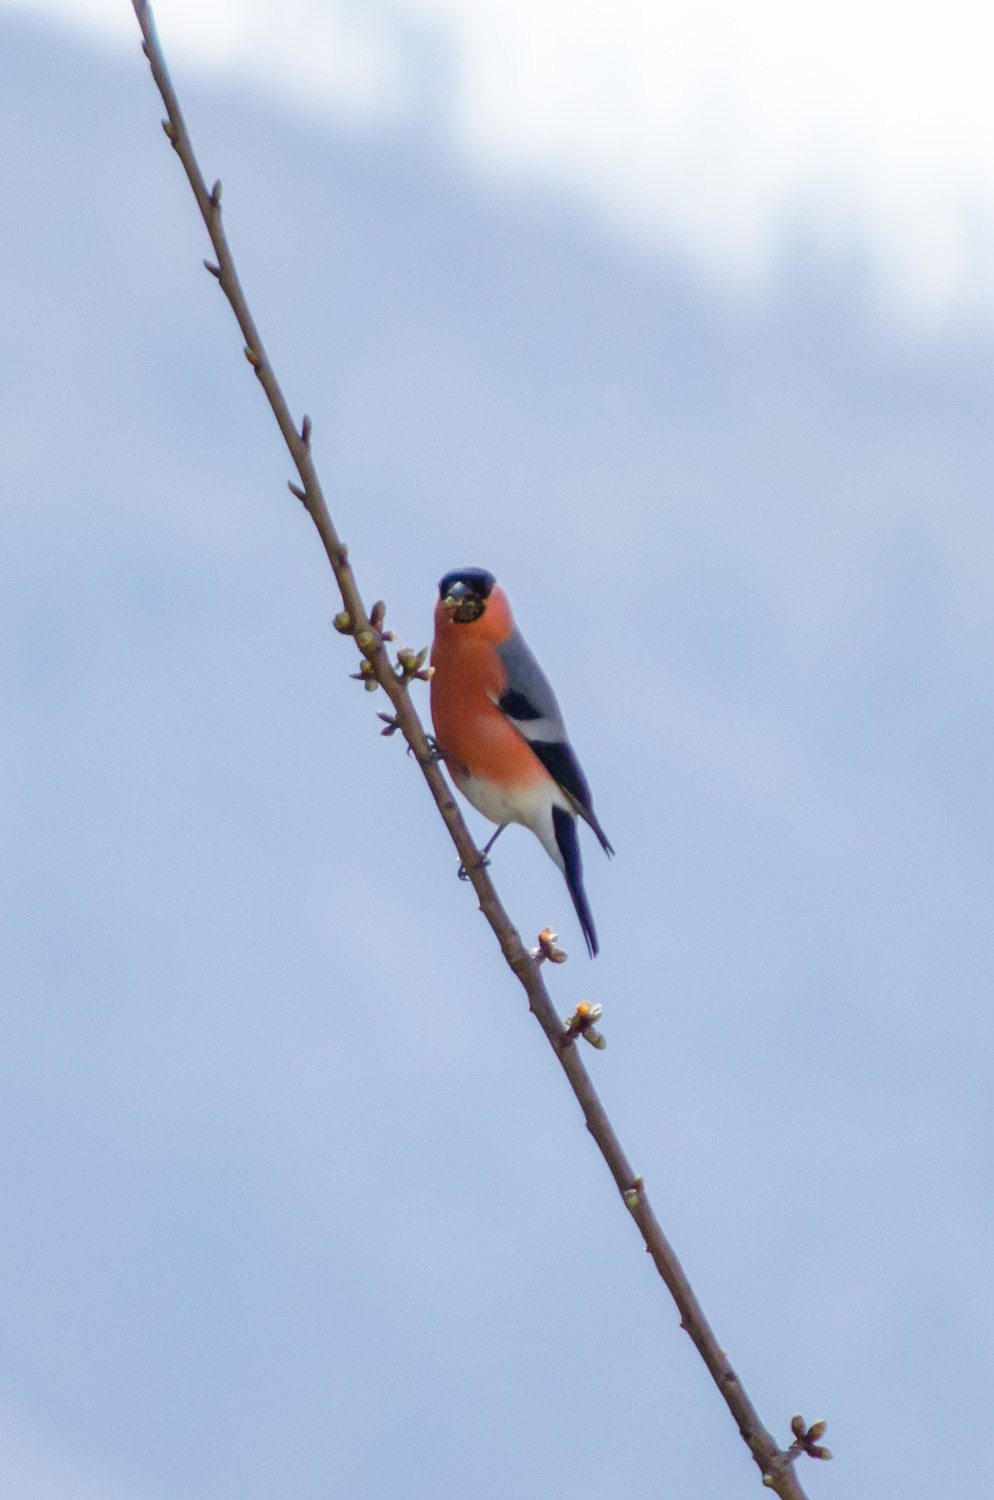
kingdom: Animalia
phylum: Chordata
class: Aves
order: Passeriformes
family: Fringillidae
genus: Pyrrhula
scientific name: Pyrrhula pyrrhula
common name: Eurasian bullfinch
